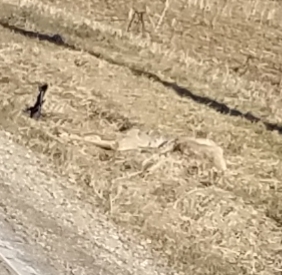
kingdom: Animalia
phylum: Chordata
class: Mammalia
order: Artiodactyla
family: Cervidae
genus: Odocoileus
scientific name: Odocoileus virginianus
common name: White-tailed deer
